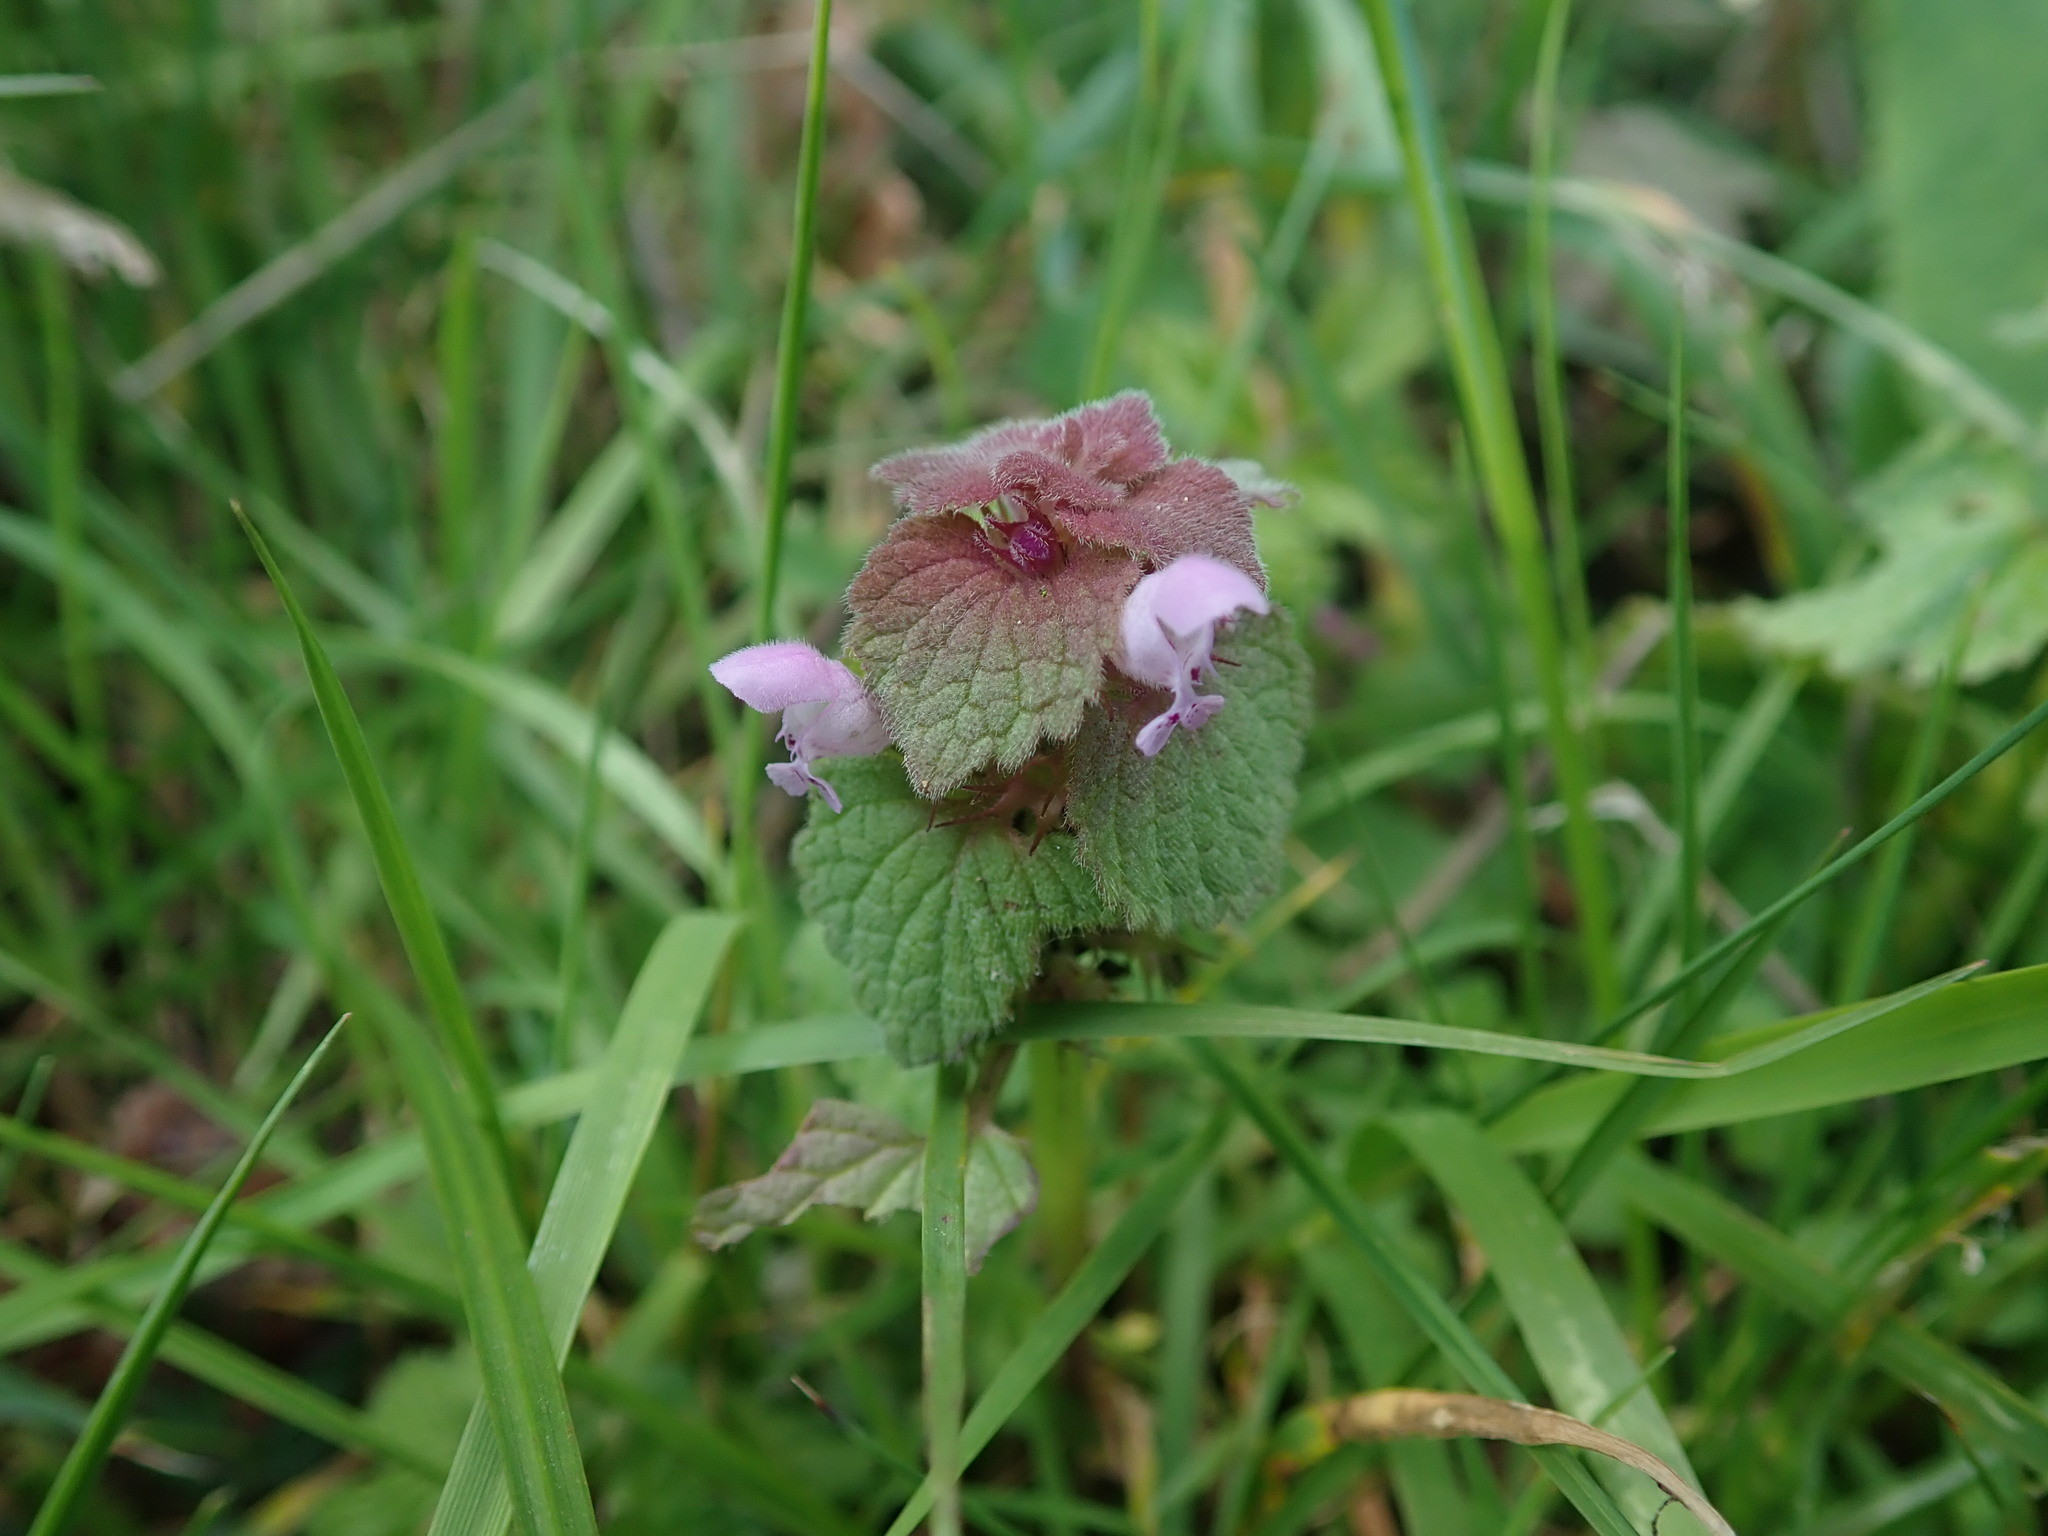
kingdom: Plantae
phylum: Tracheophyta
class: Magnoliopsida
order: Lamiales
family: Lamiaceae
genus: Lamium
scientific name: Lamium purpureum
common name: Red dead-nettle
